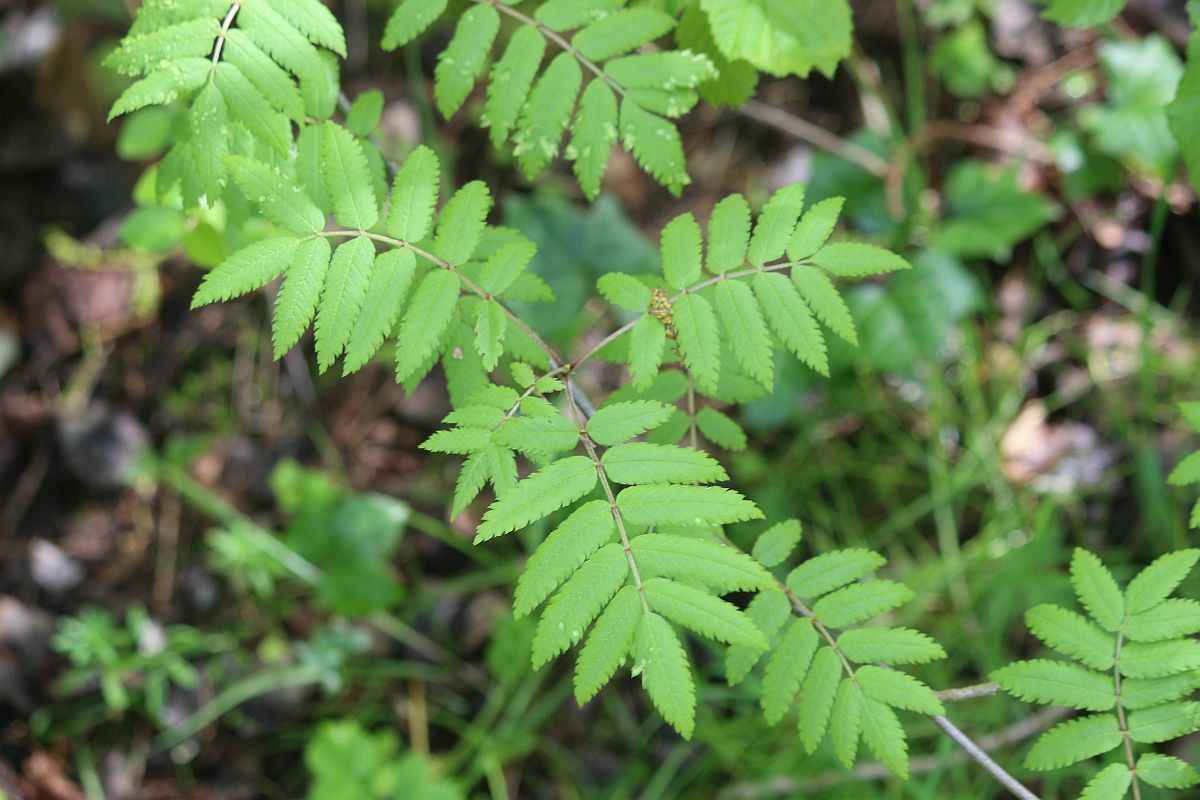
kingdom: Plantae
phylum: Tracheophyta
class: Magnoliopsida
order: Rosales
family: Rosaceae
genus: Sorbus
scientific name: Sorbus aucuparia
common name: Rowan
